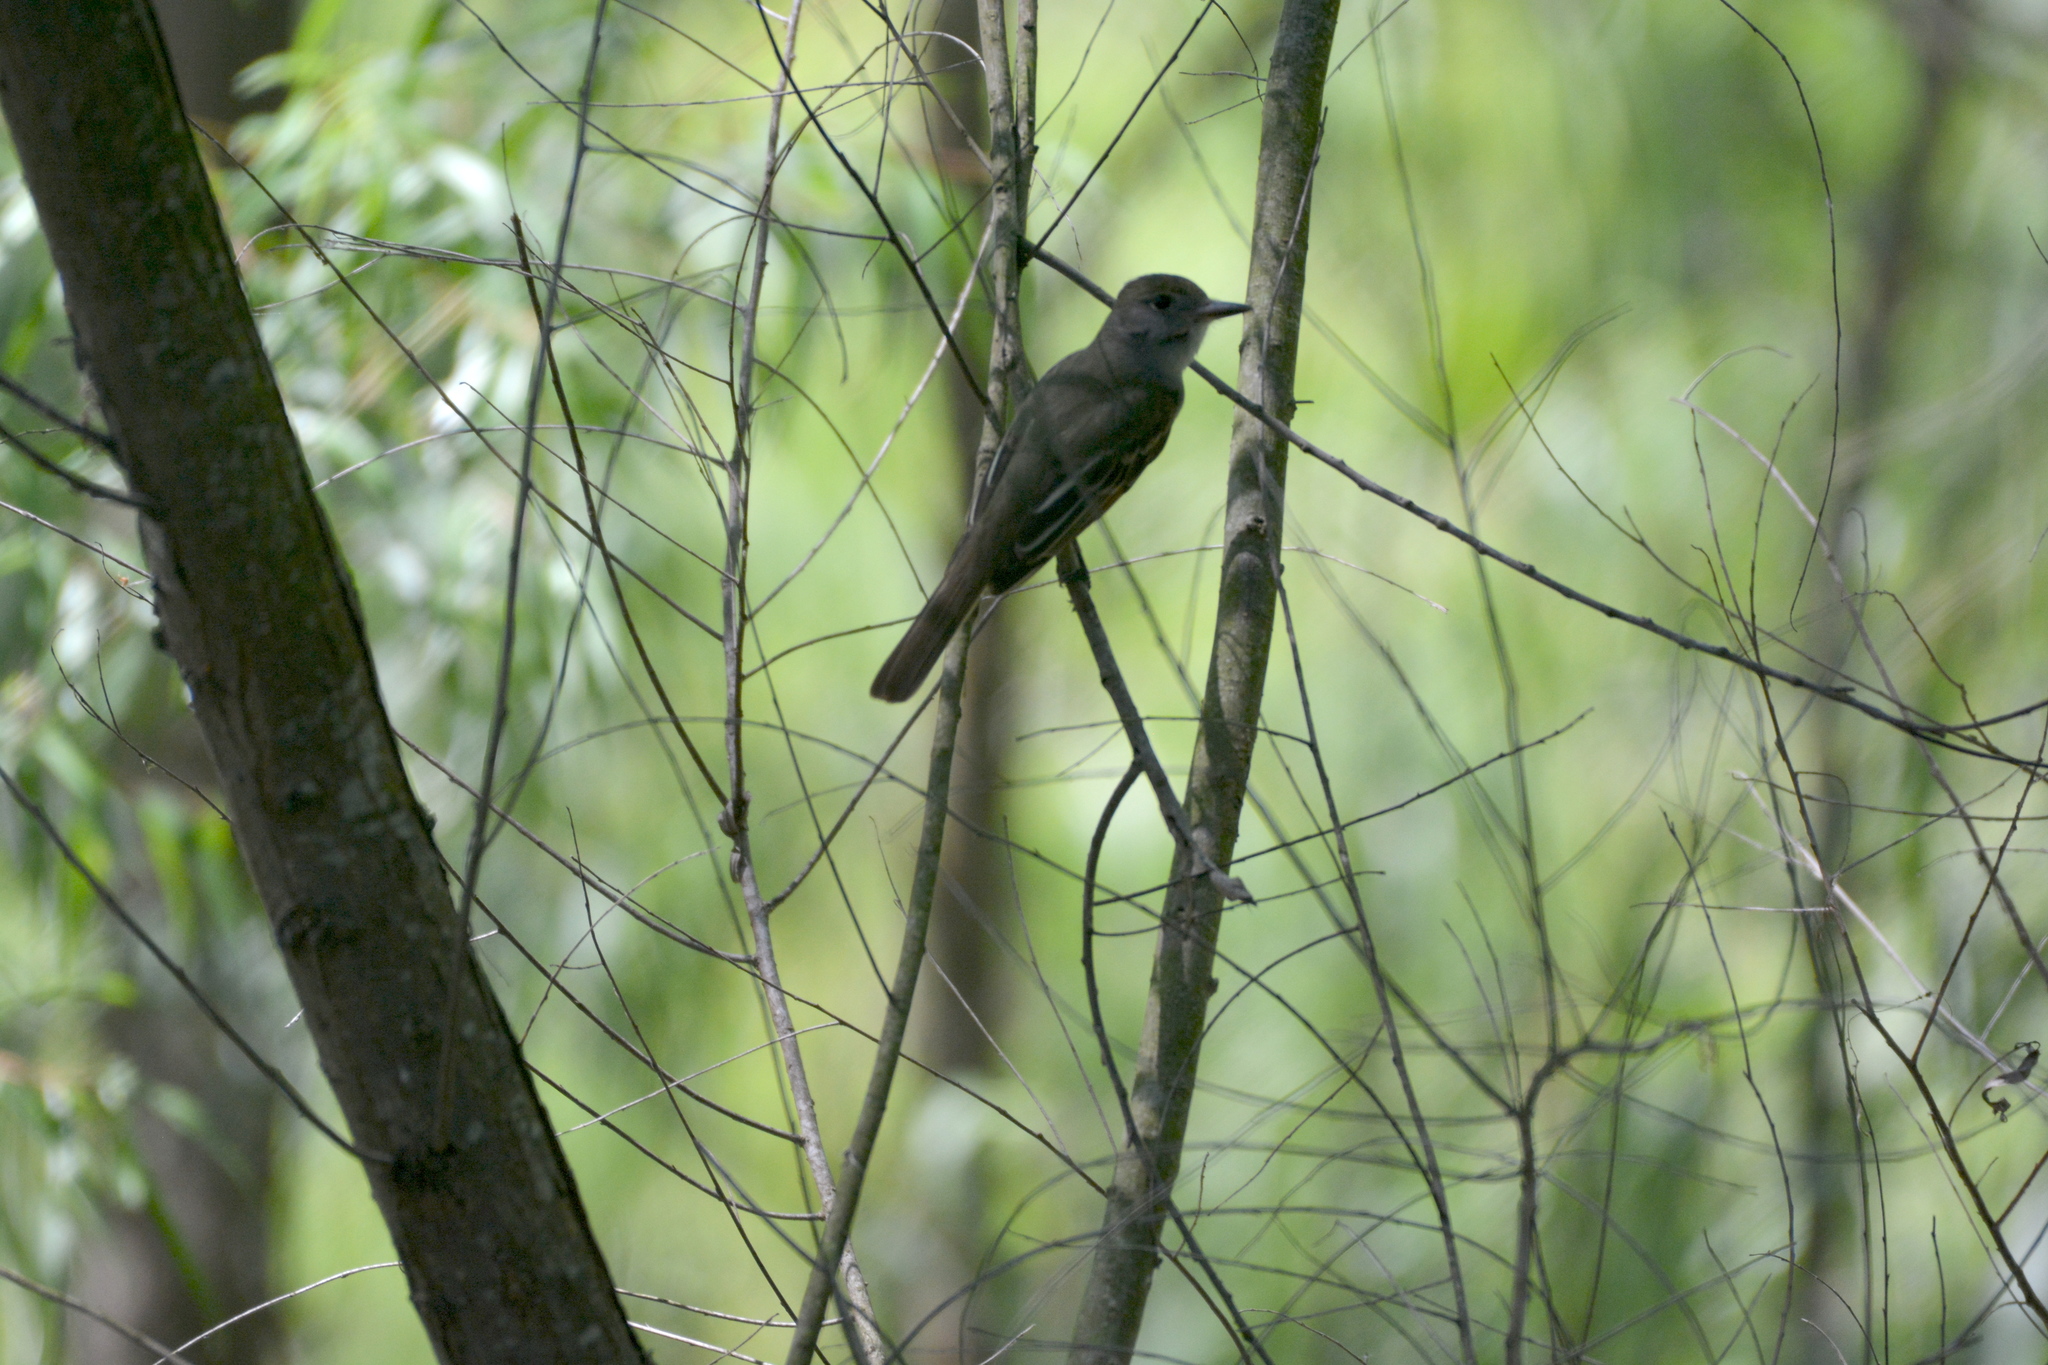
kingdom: Animalia
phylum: Chordata
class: Aves
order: Passeriformes
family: Tyrannidae
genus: Myiarchus
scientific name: Myiarchus crinitus
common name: Great crested flycatcher
